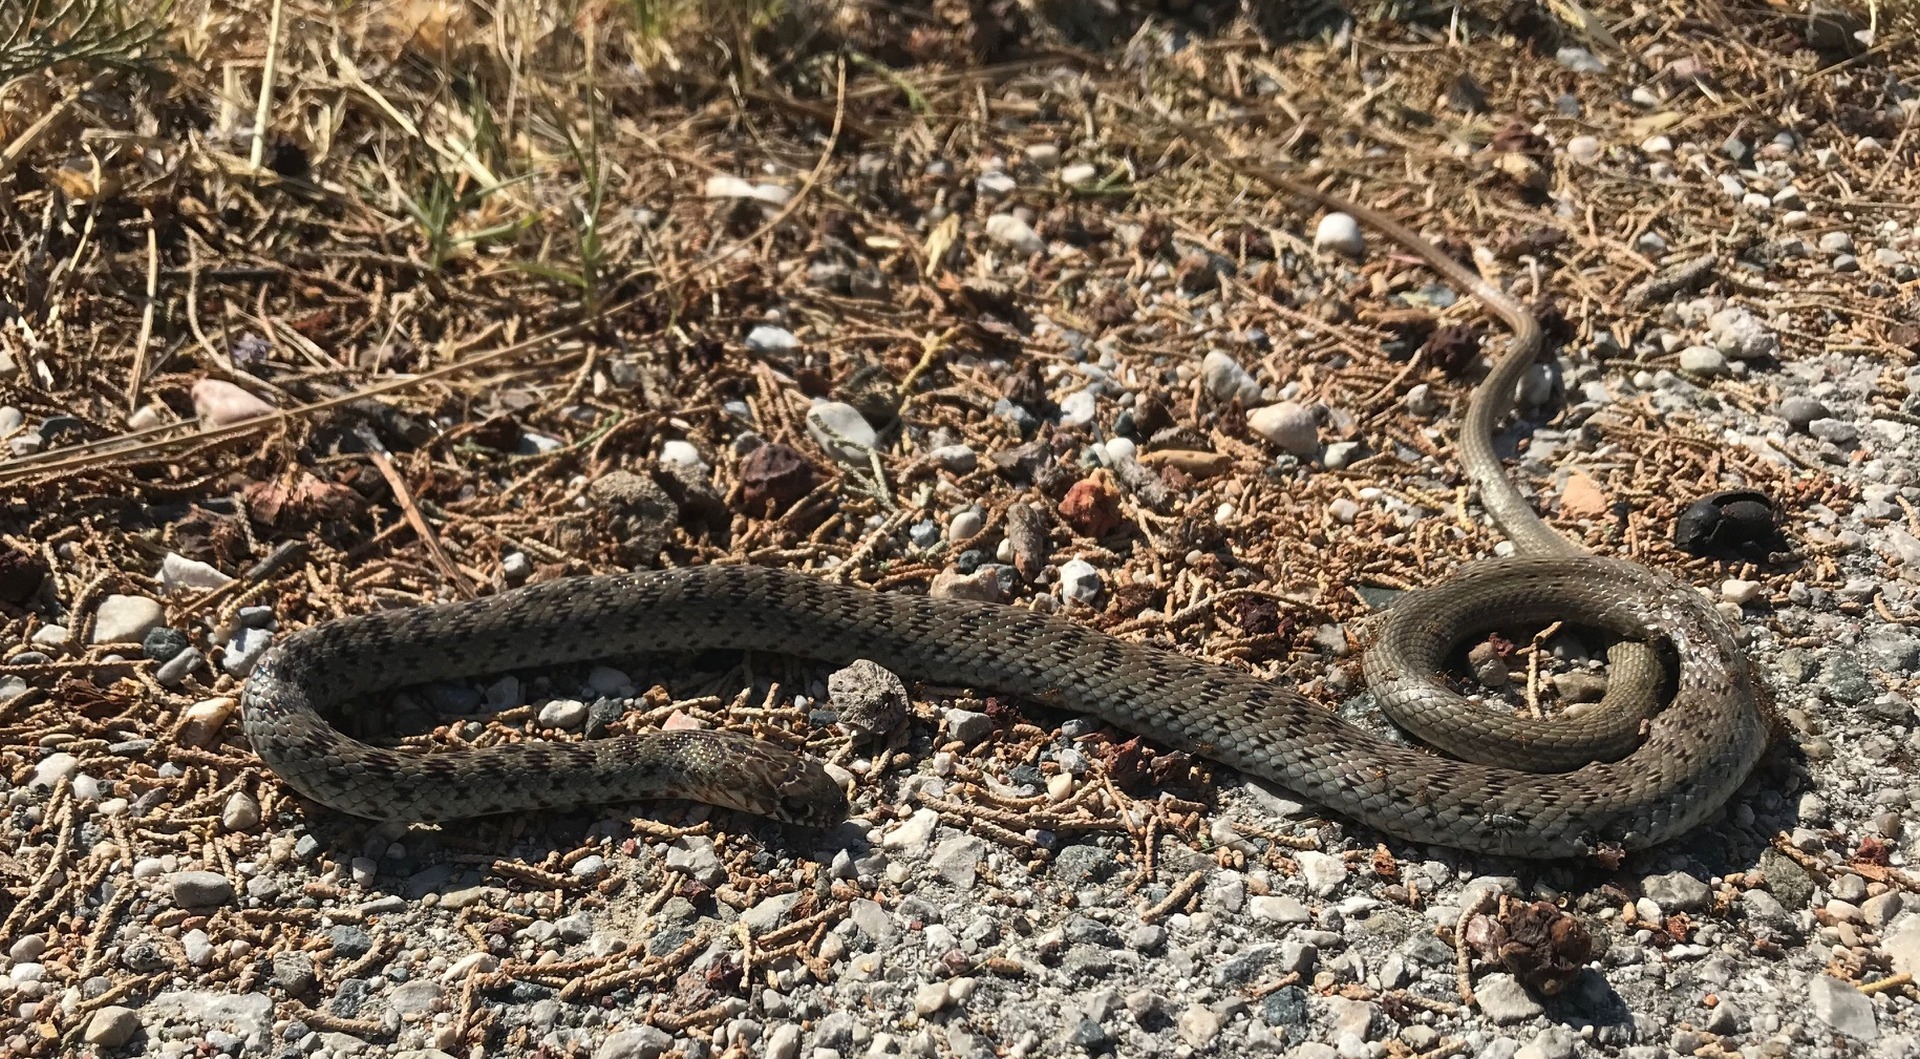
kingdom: Animalia
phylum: Chordata
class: Squamata
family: Colubridae
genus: Dolichophis
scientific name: Dolichophis jugularis
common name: Large whip snake
